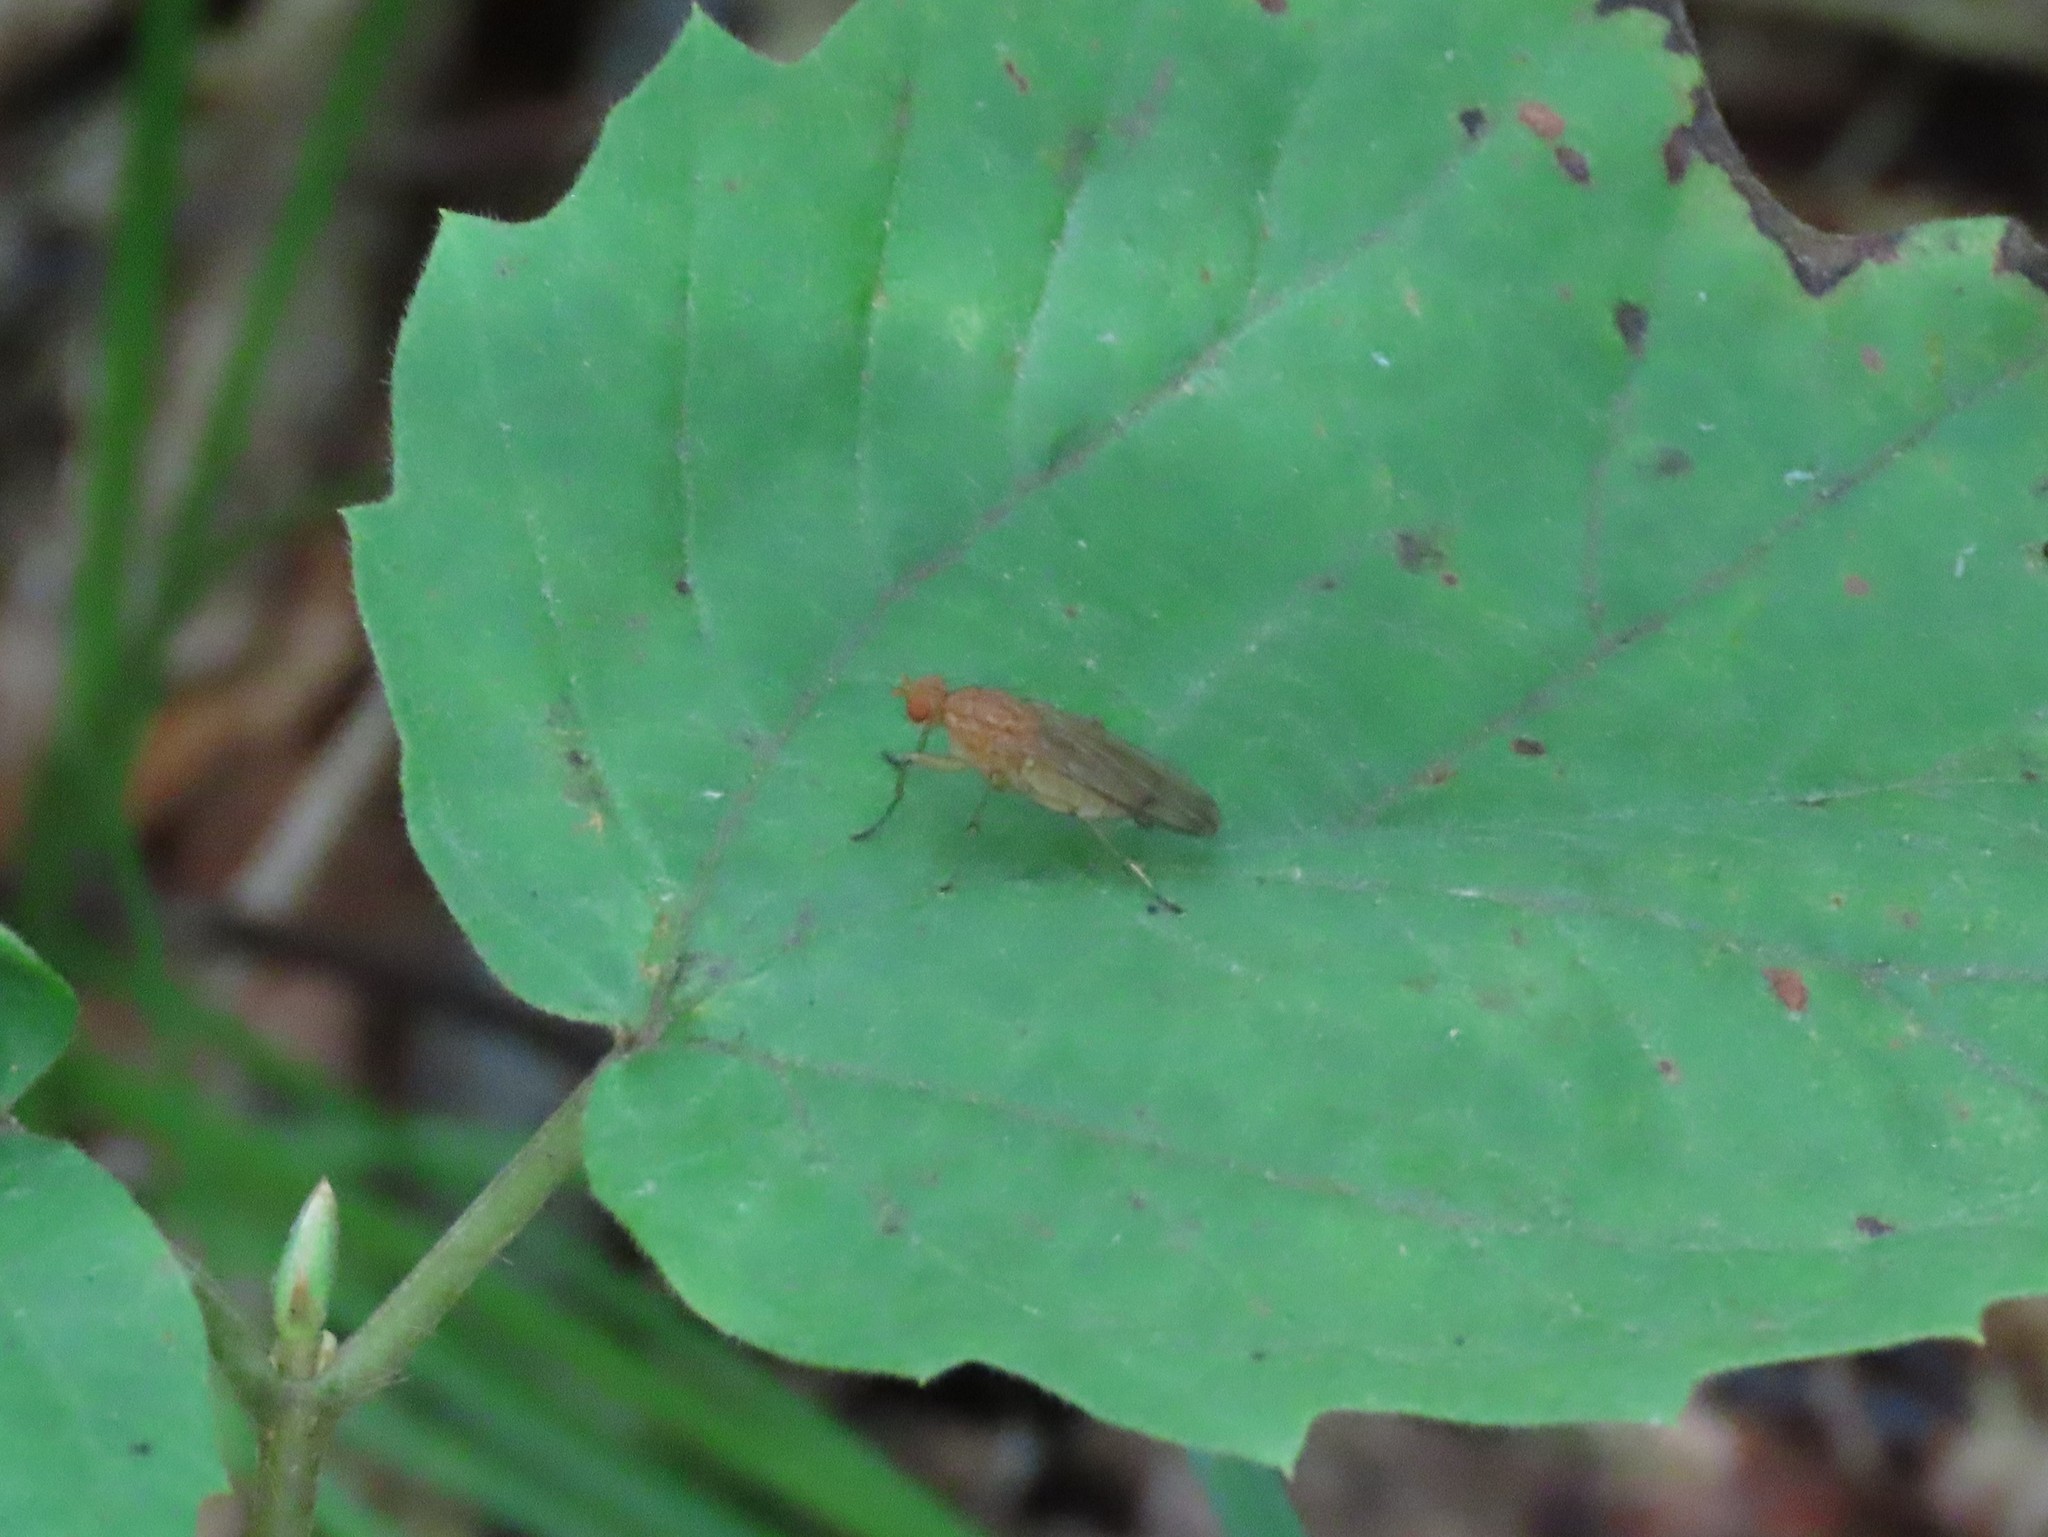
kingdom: Animalia
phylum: Arthropoda
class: Insecta
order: Diptera
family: Heleomyzidae
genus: Amoebaleria
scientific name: Amoebaleria helvola
